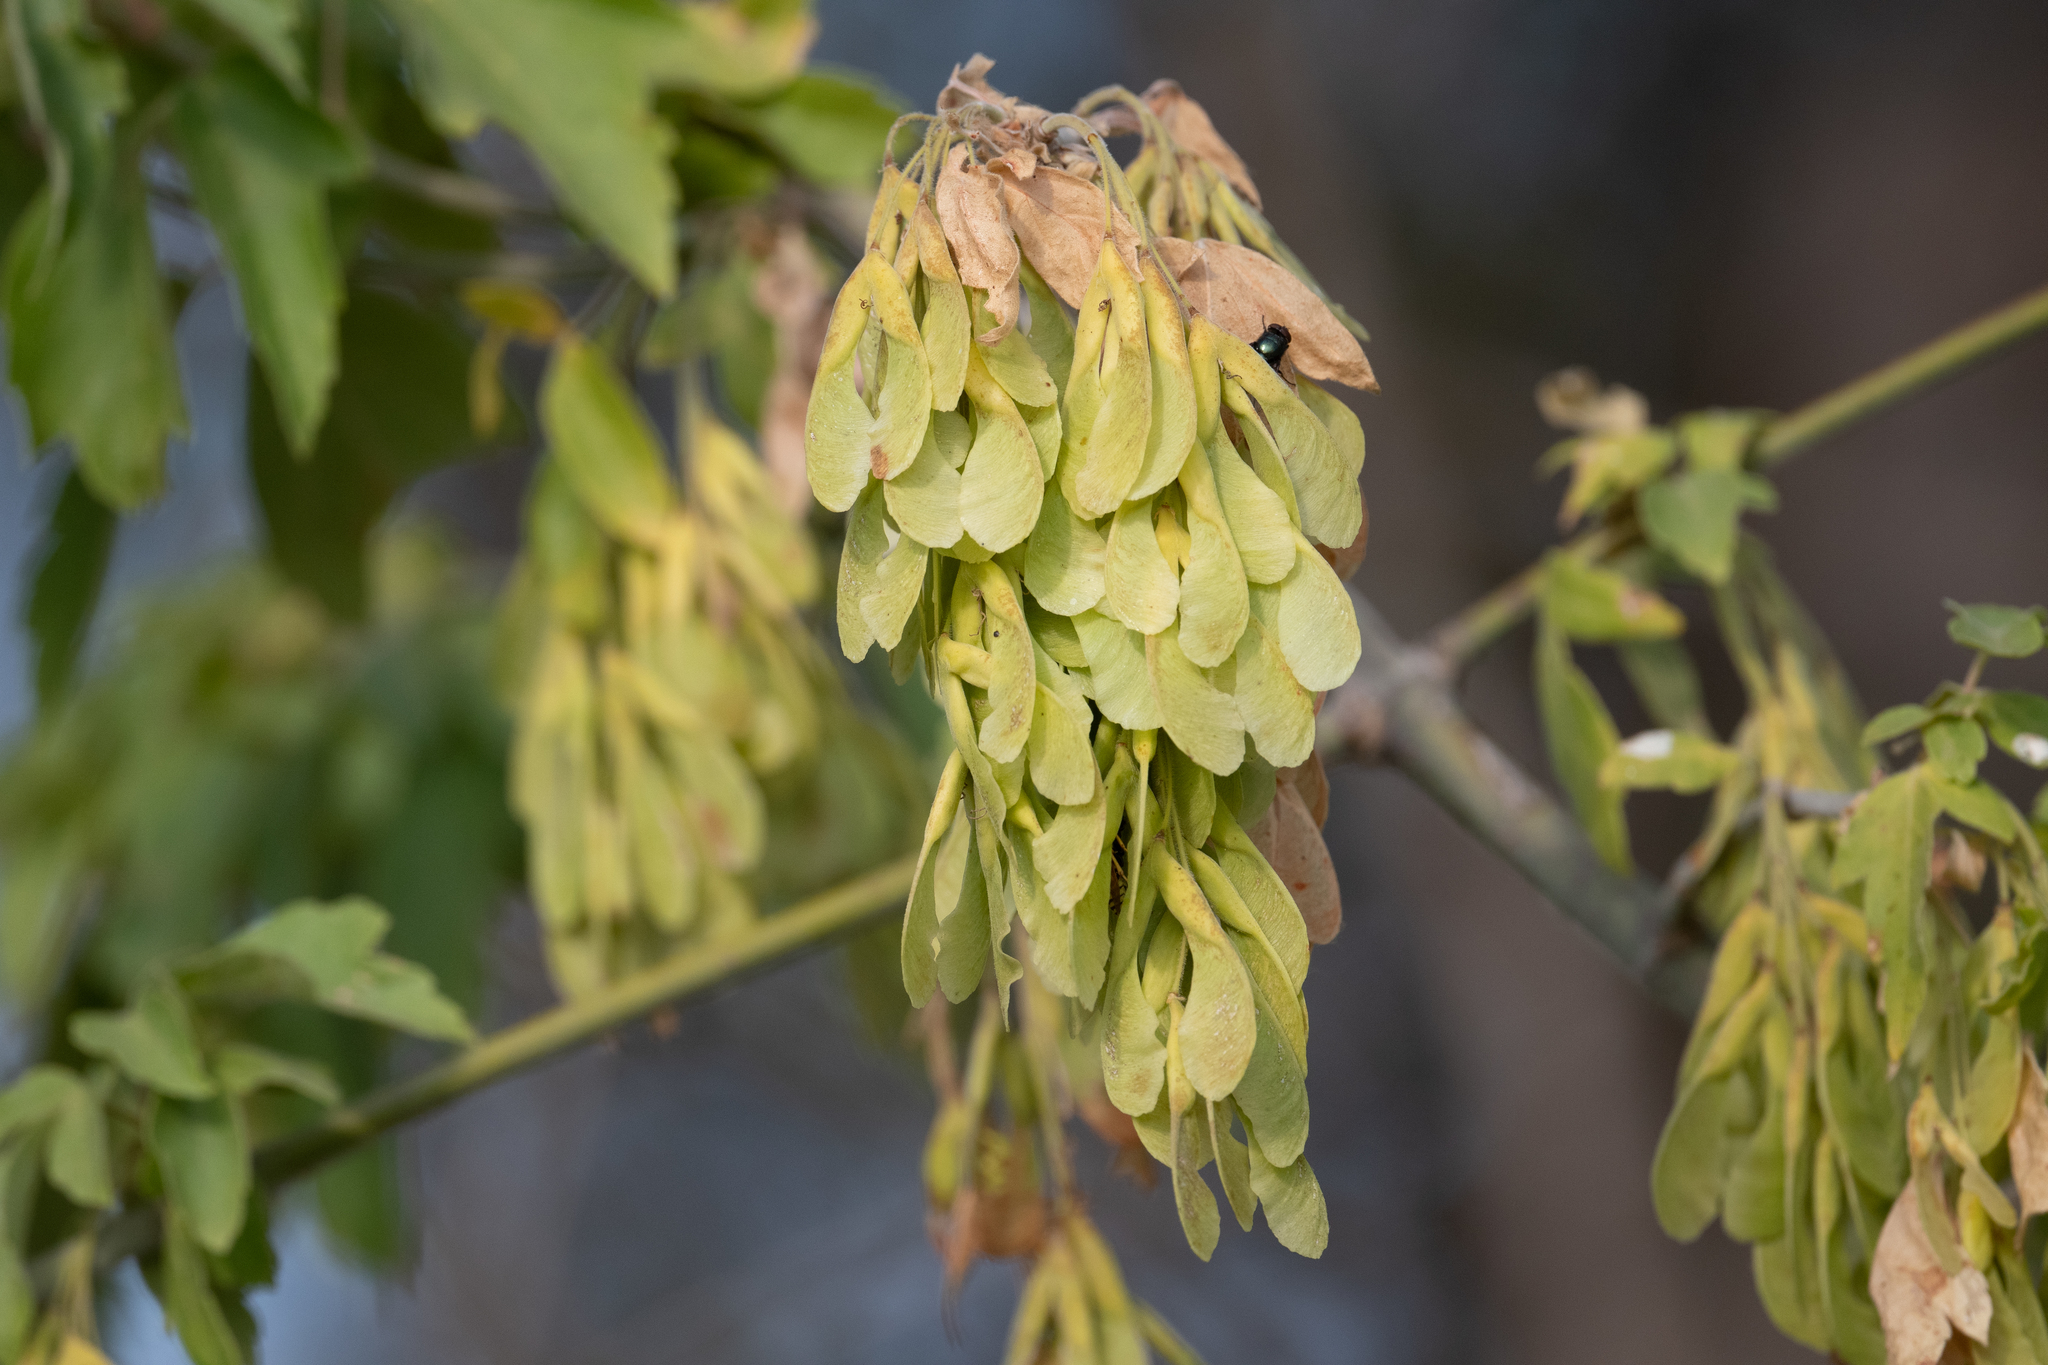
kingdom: Plantae
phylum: Tracheophyta
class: Magnoliopsida
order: Sapindales
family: Sapindaceae
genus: Acer
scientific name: Acer negundo
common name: Ashleaf maple
